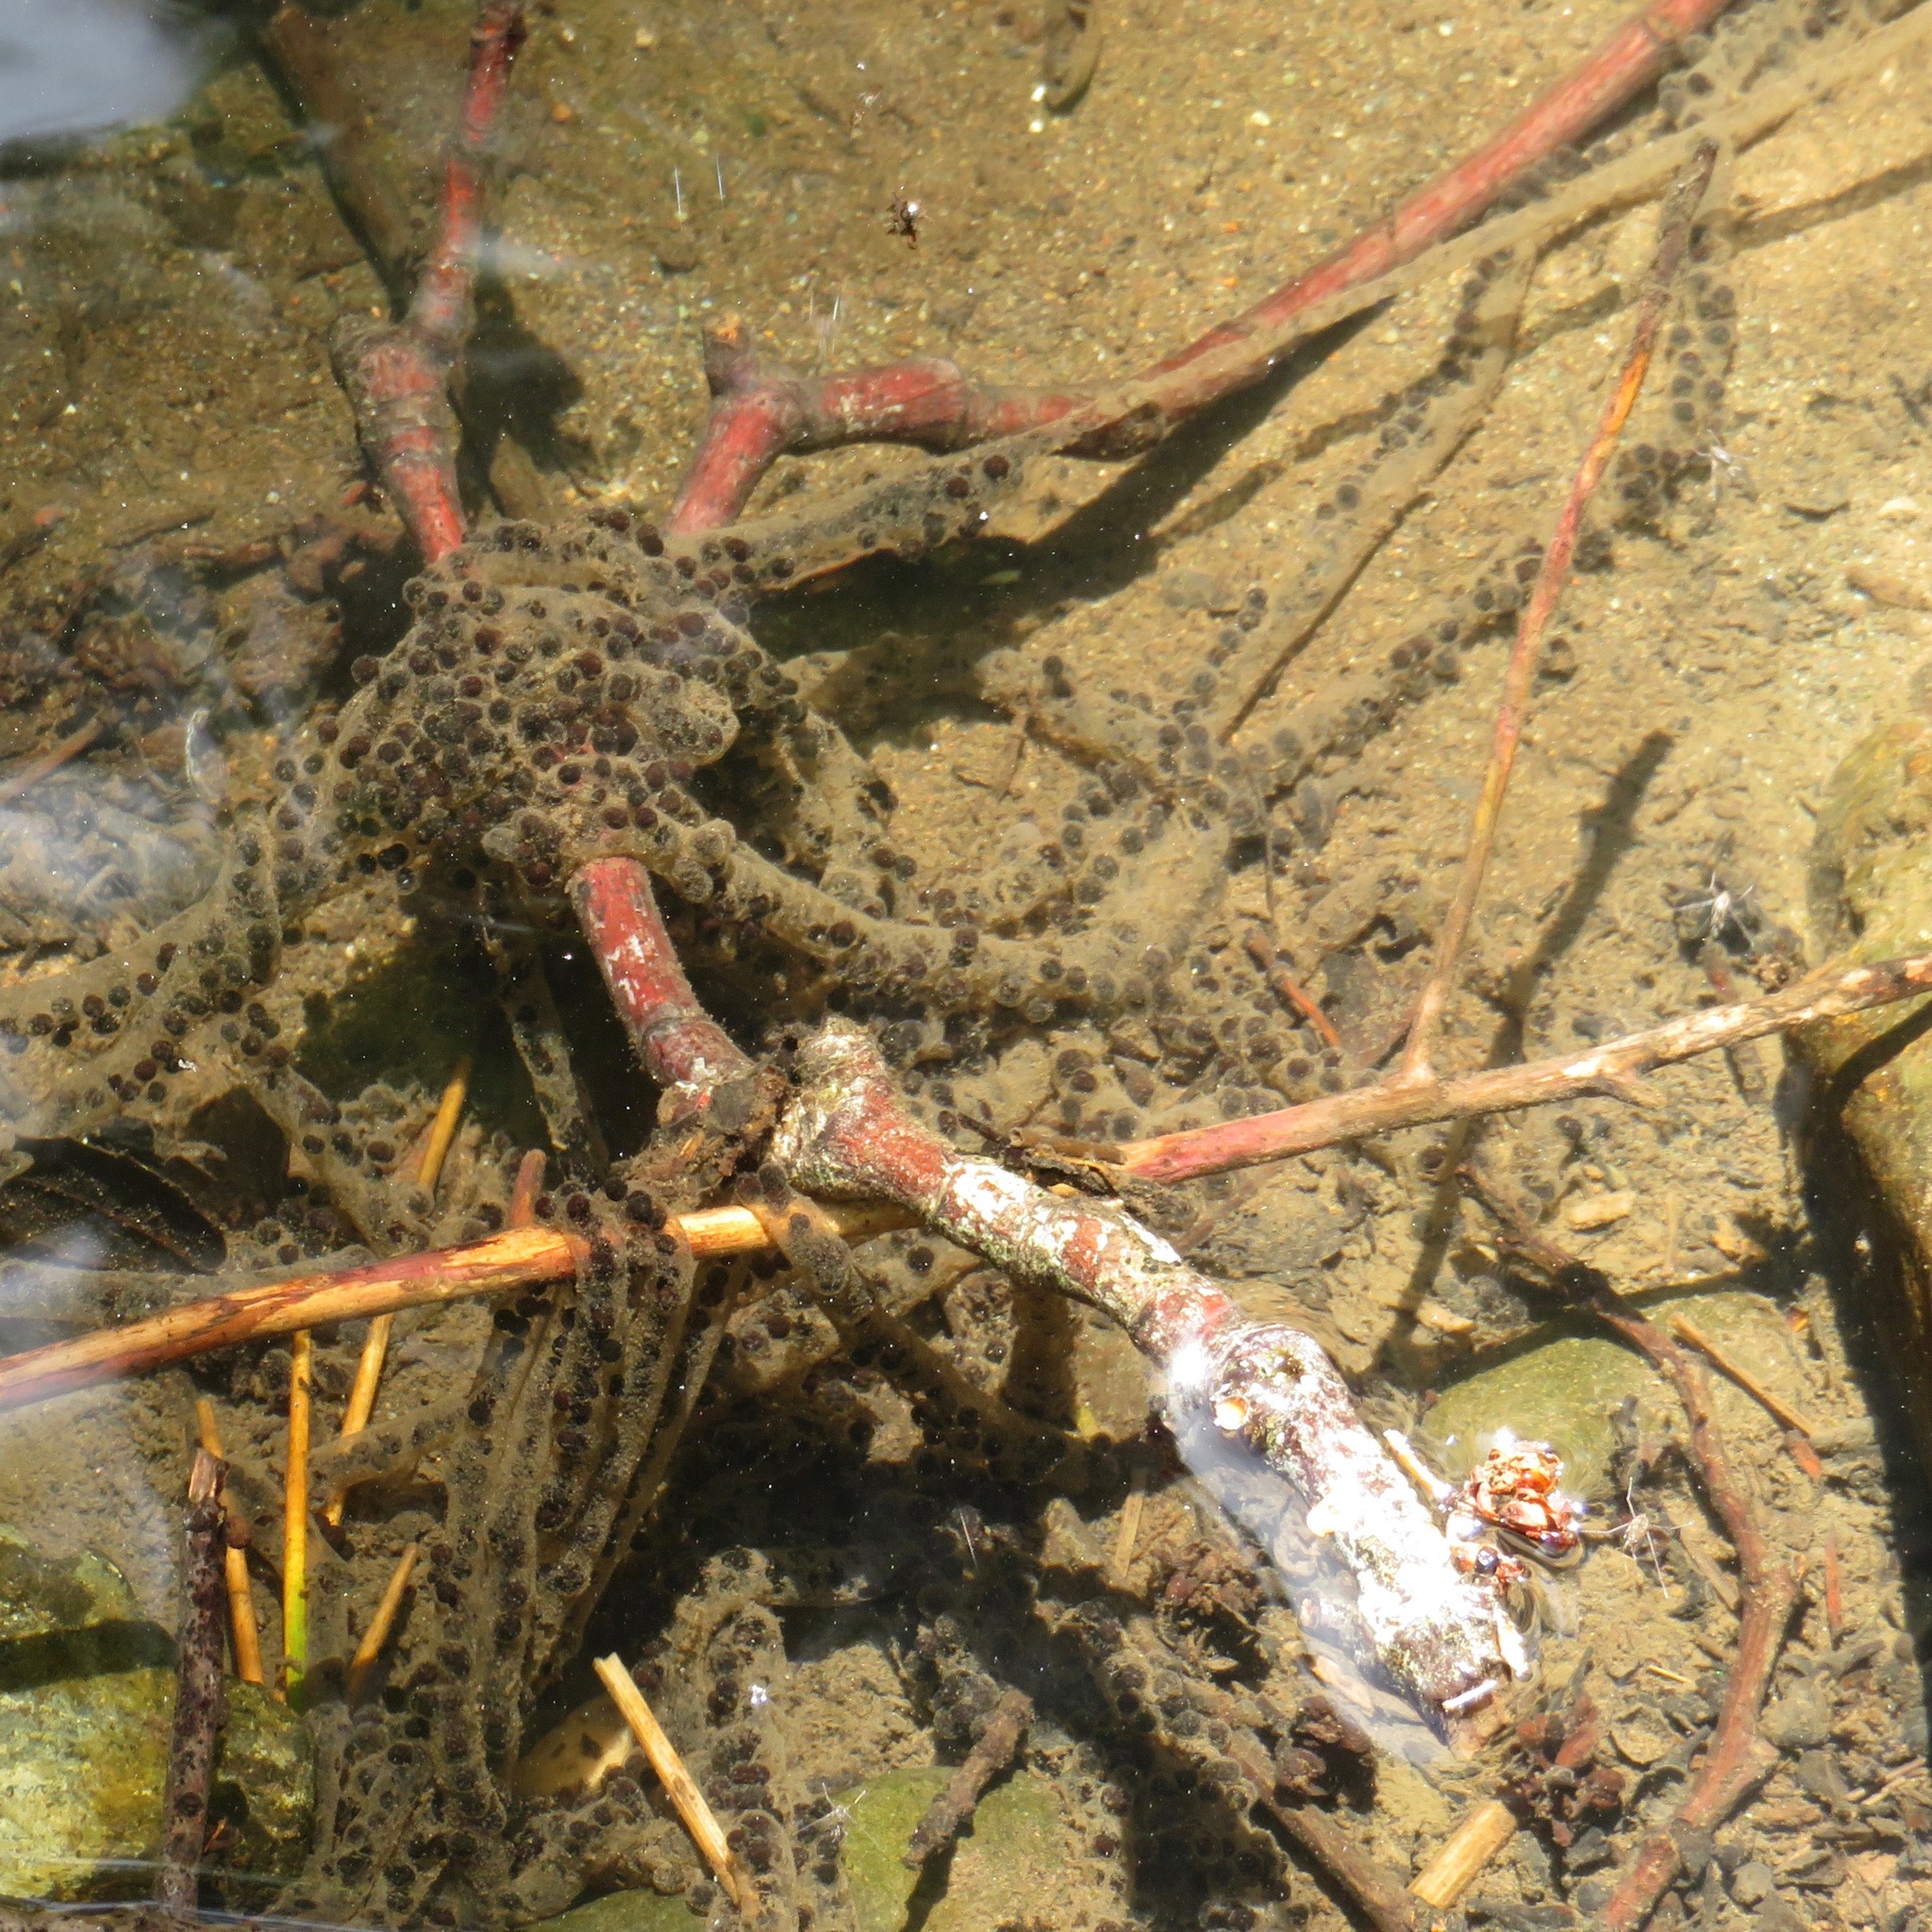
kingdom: Animalia
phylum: Chordata
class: Amphibia
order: Anura
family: Bufonidae
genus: Anaxyrus
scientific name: Anaxyrus boreas
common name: Western toad
